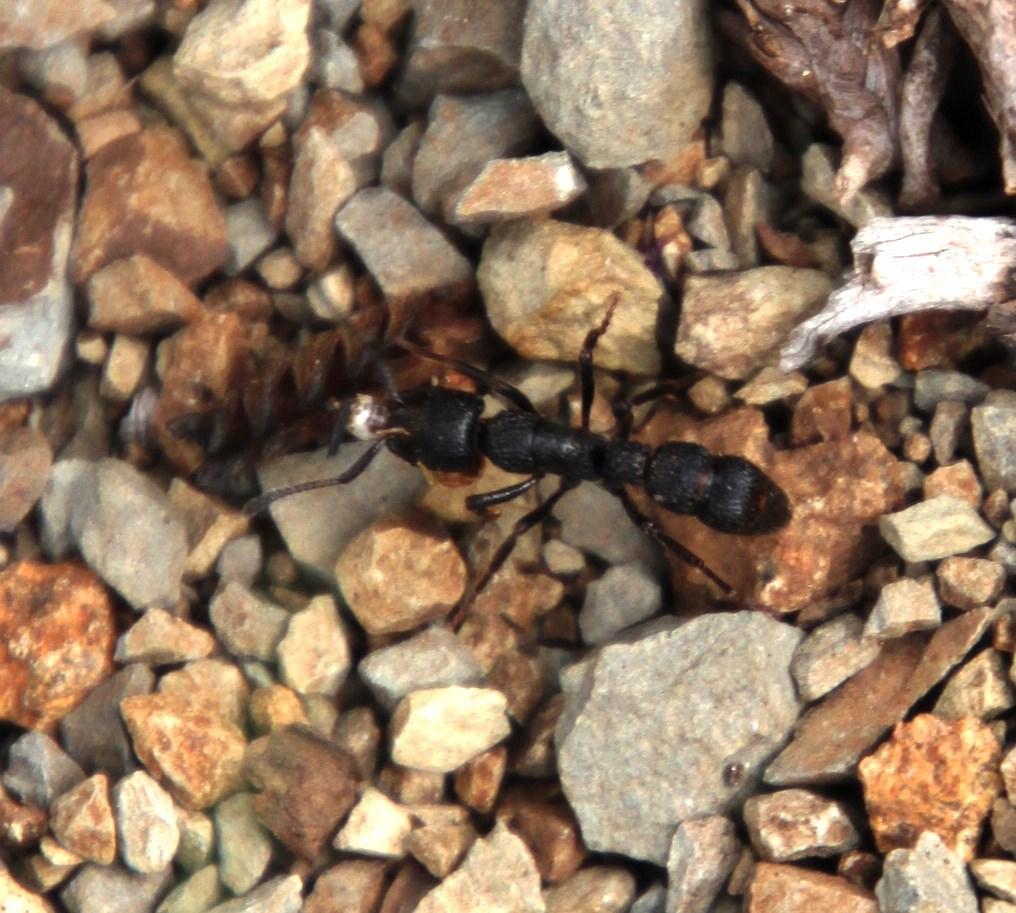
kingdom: Animalia
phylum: Arthropoda
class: Insecta
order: Hymenoptera
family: Formicidae
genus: Bothroponera
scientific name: Bothroponera granosa
